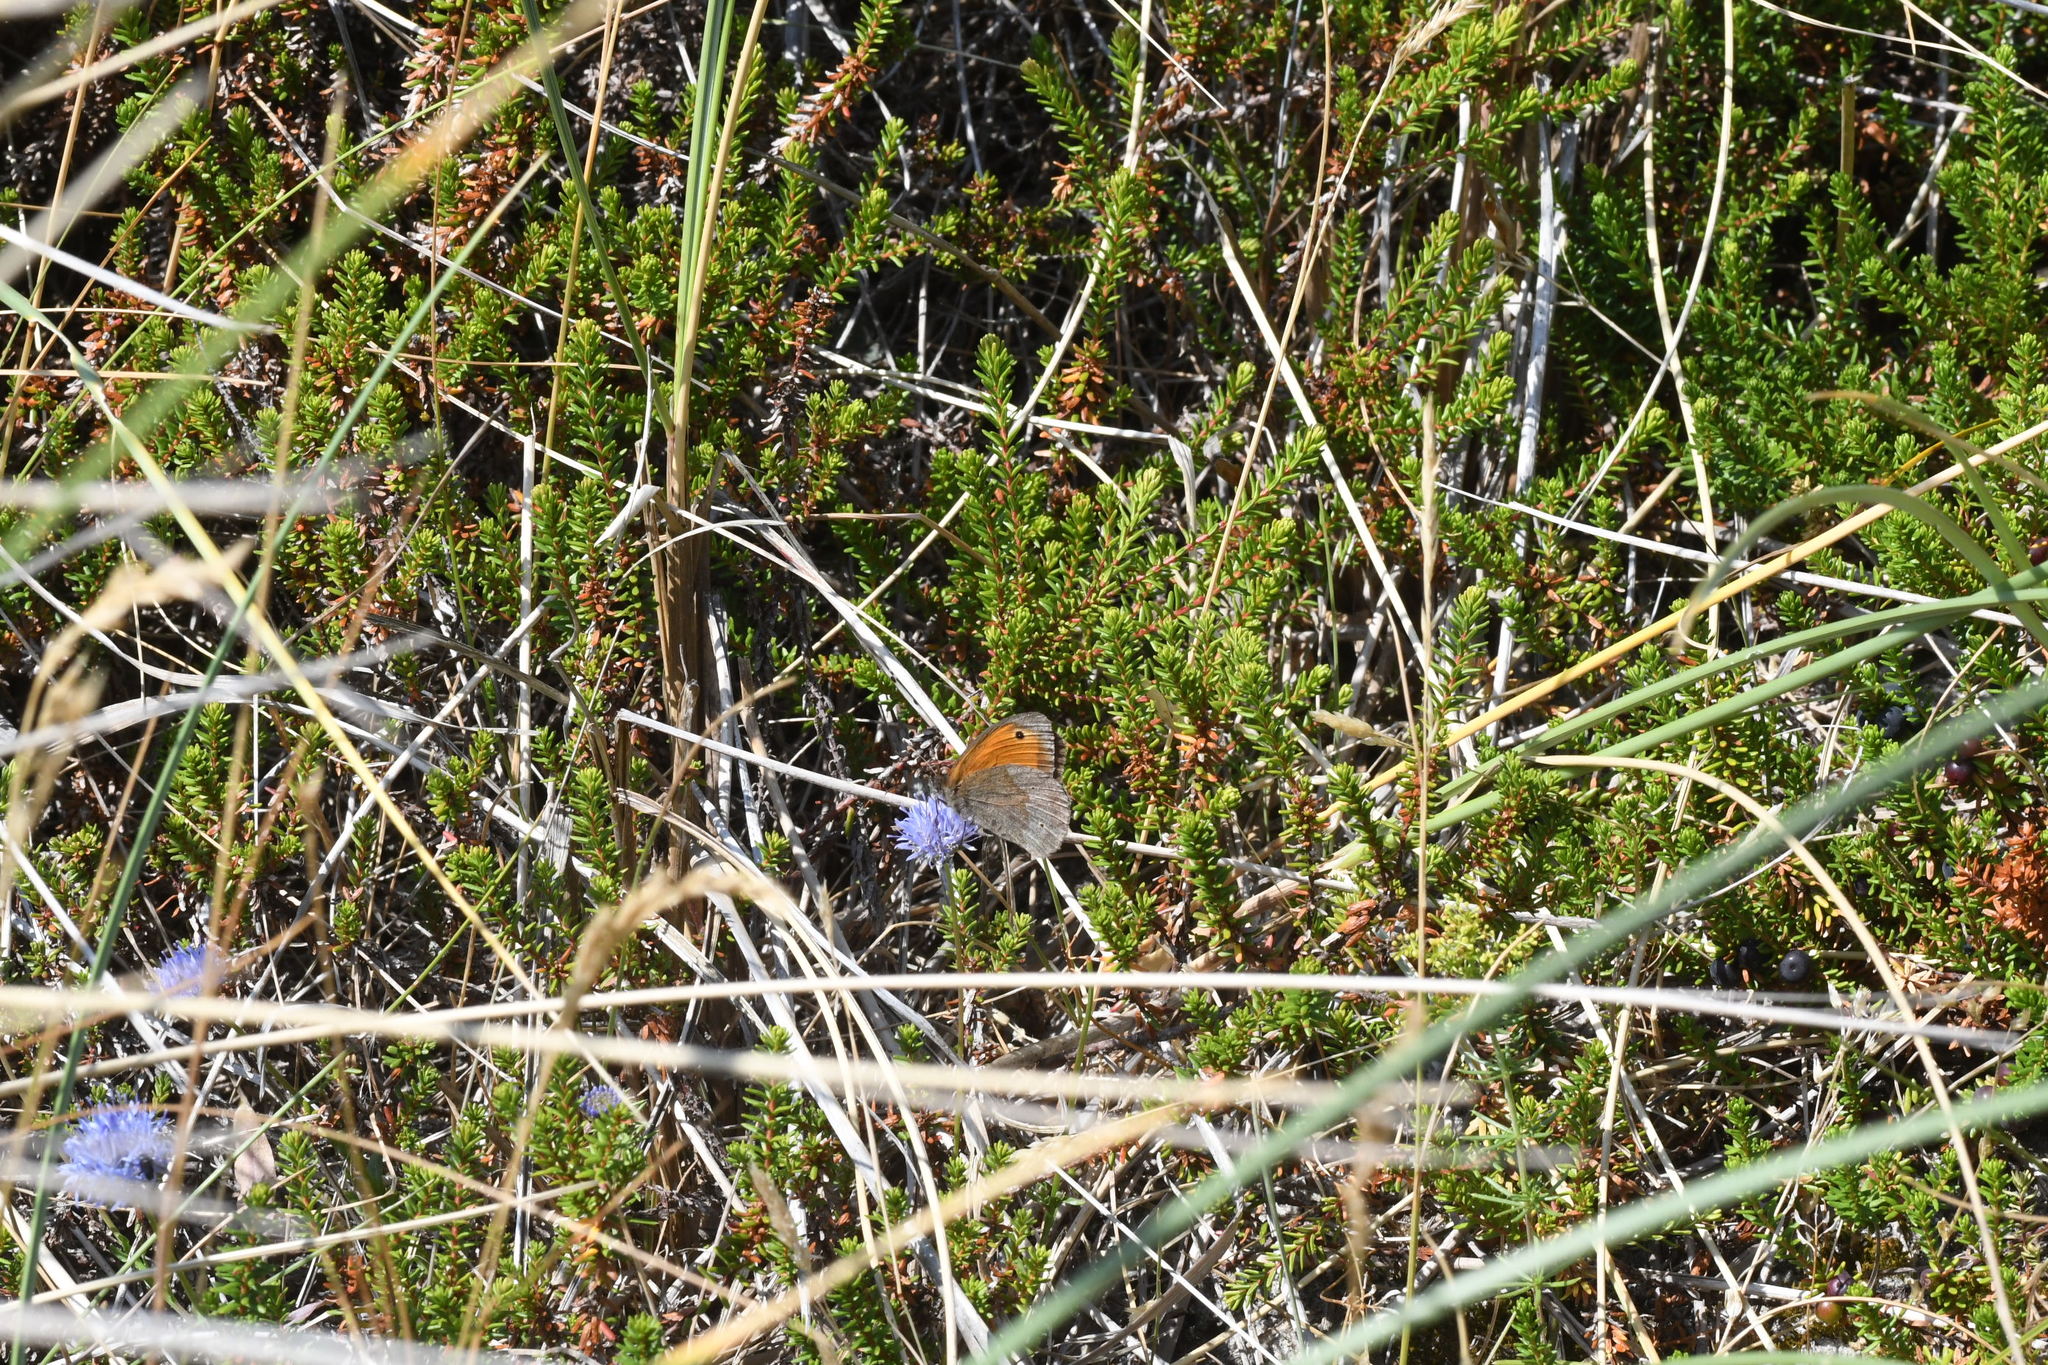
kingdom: Animalia
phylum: Arthropoda
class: Insecta
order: Lepidoptera
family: Nymphalidae
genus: Maniola
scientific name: Maniola jurtina
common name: Meadow brown
